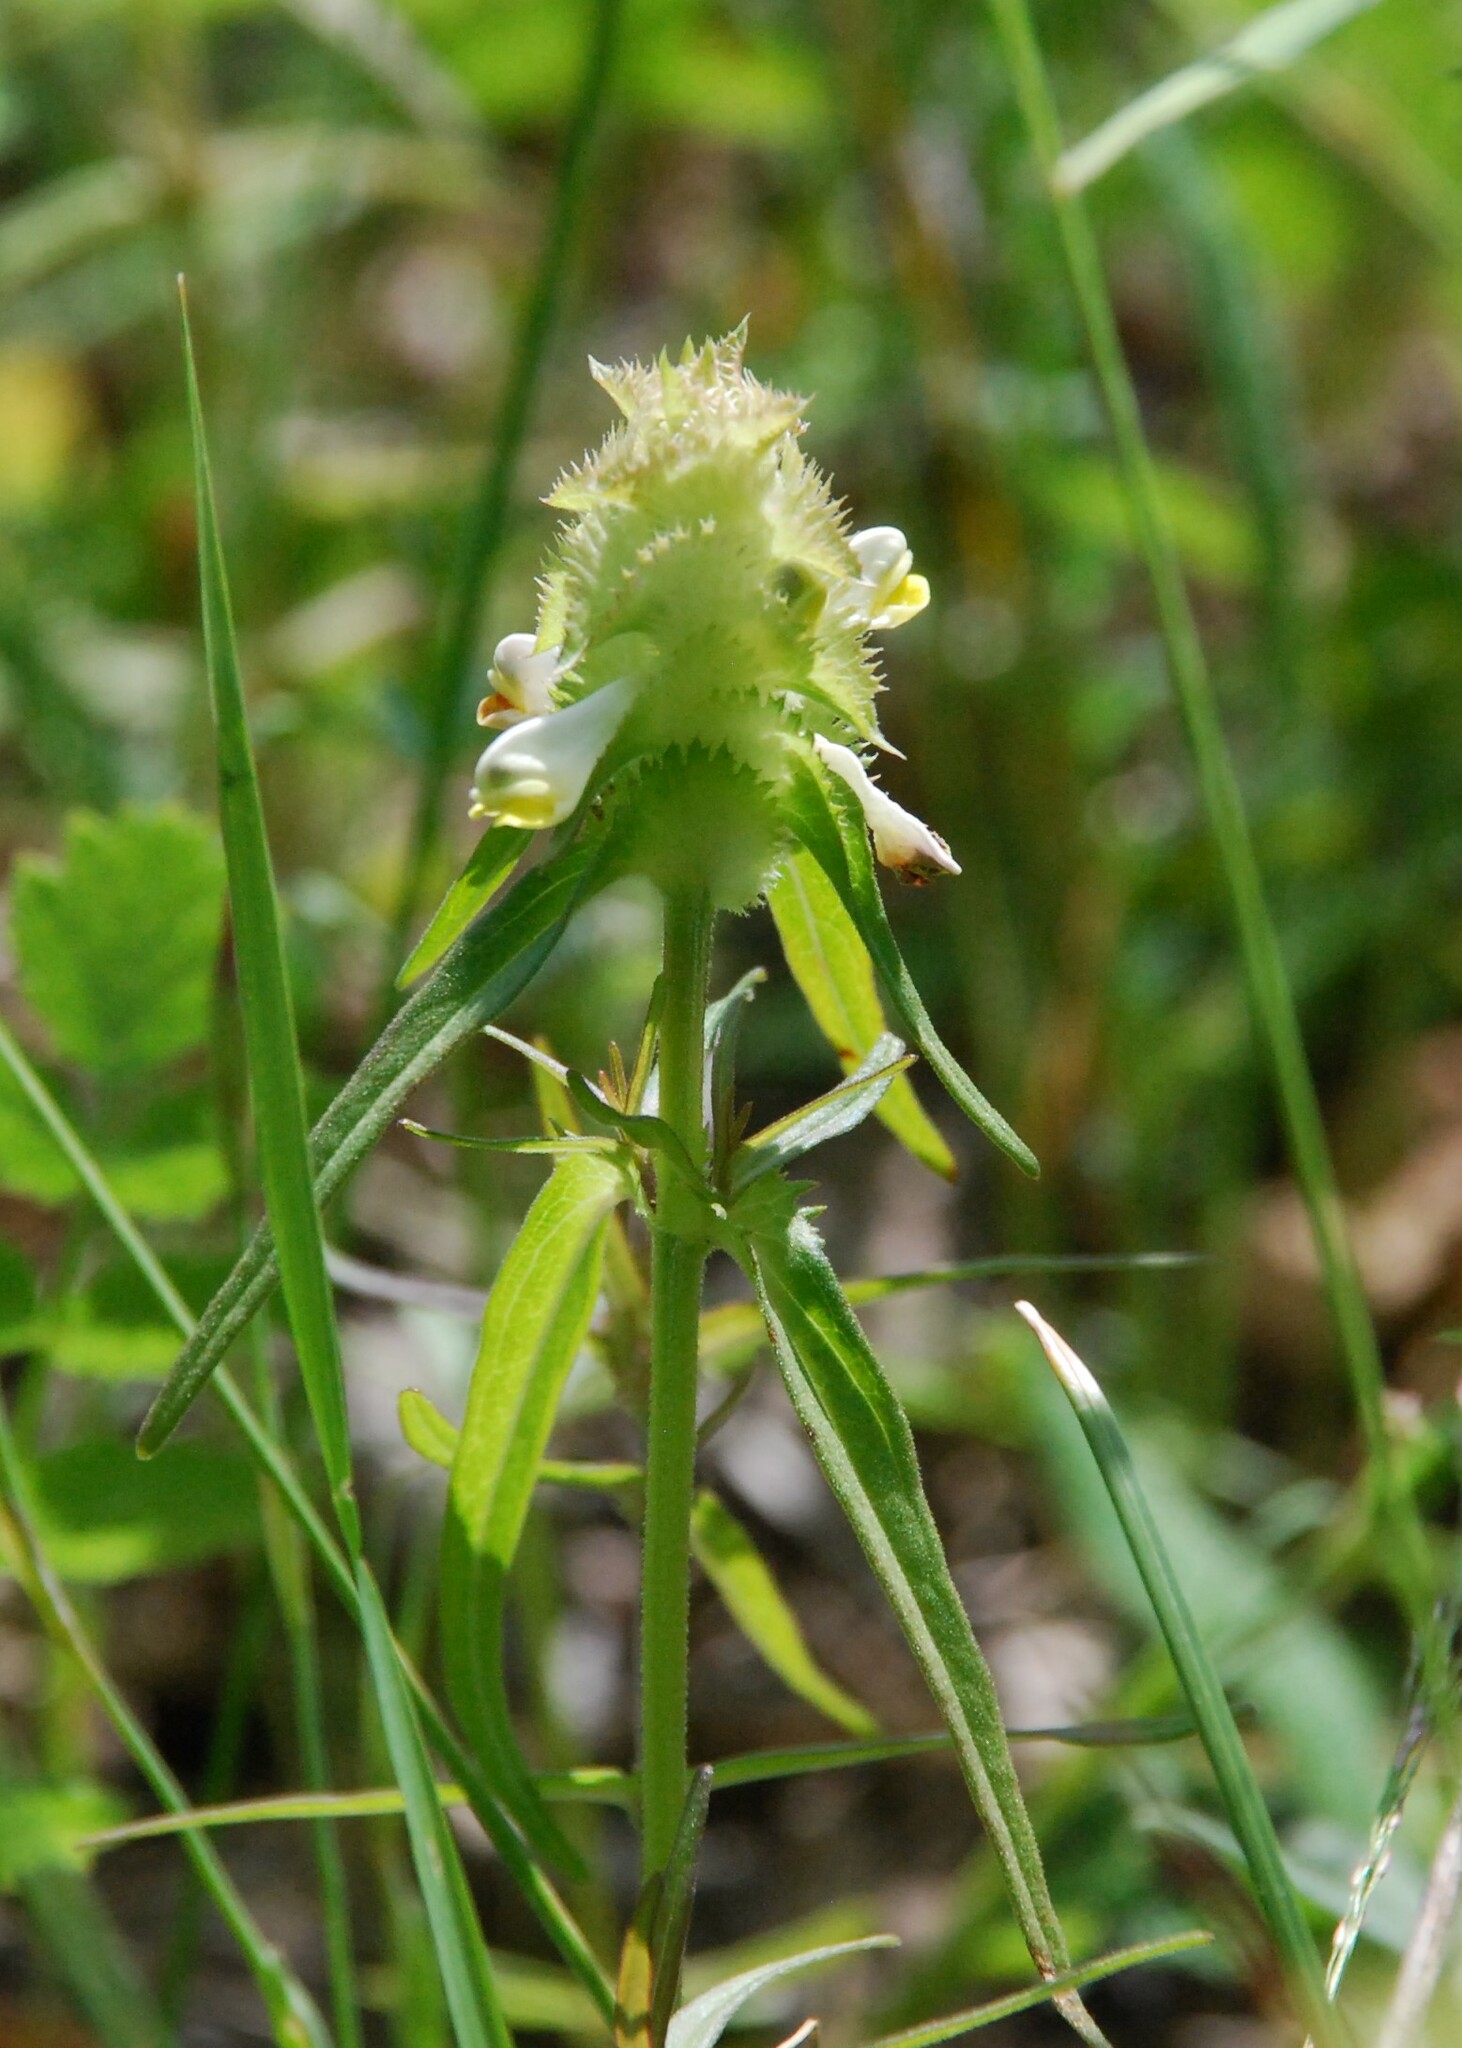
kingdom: Plantae
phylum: Tracheophyta
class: Magnoliopsida
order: Lamiales
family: Orobanchaceae
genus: Melampyrum
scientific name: Melampyrum cristatum
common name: Crested cow-wheat
